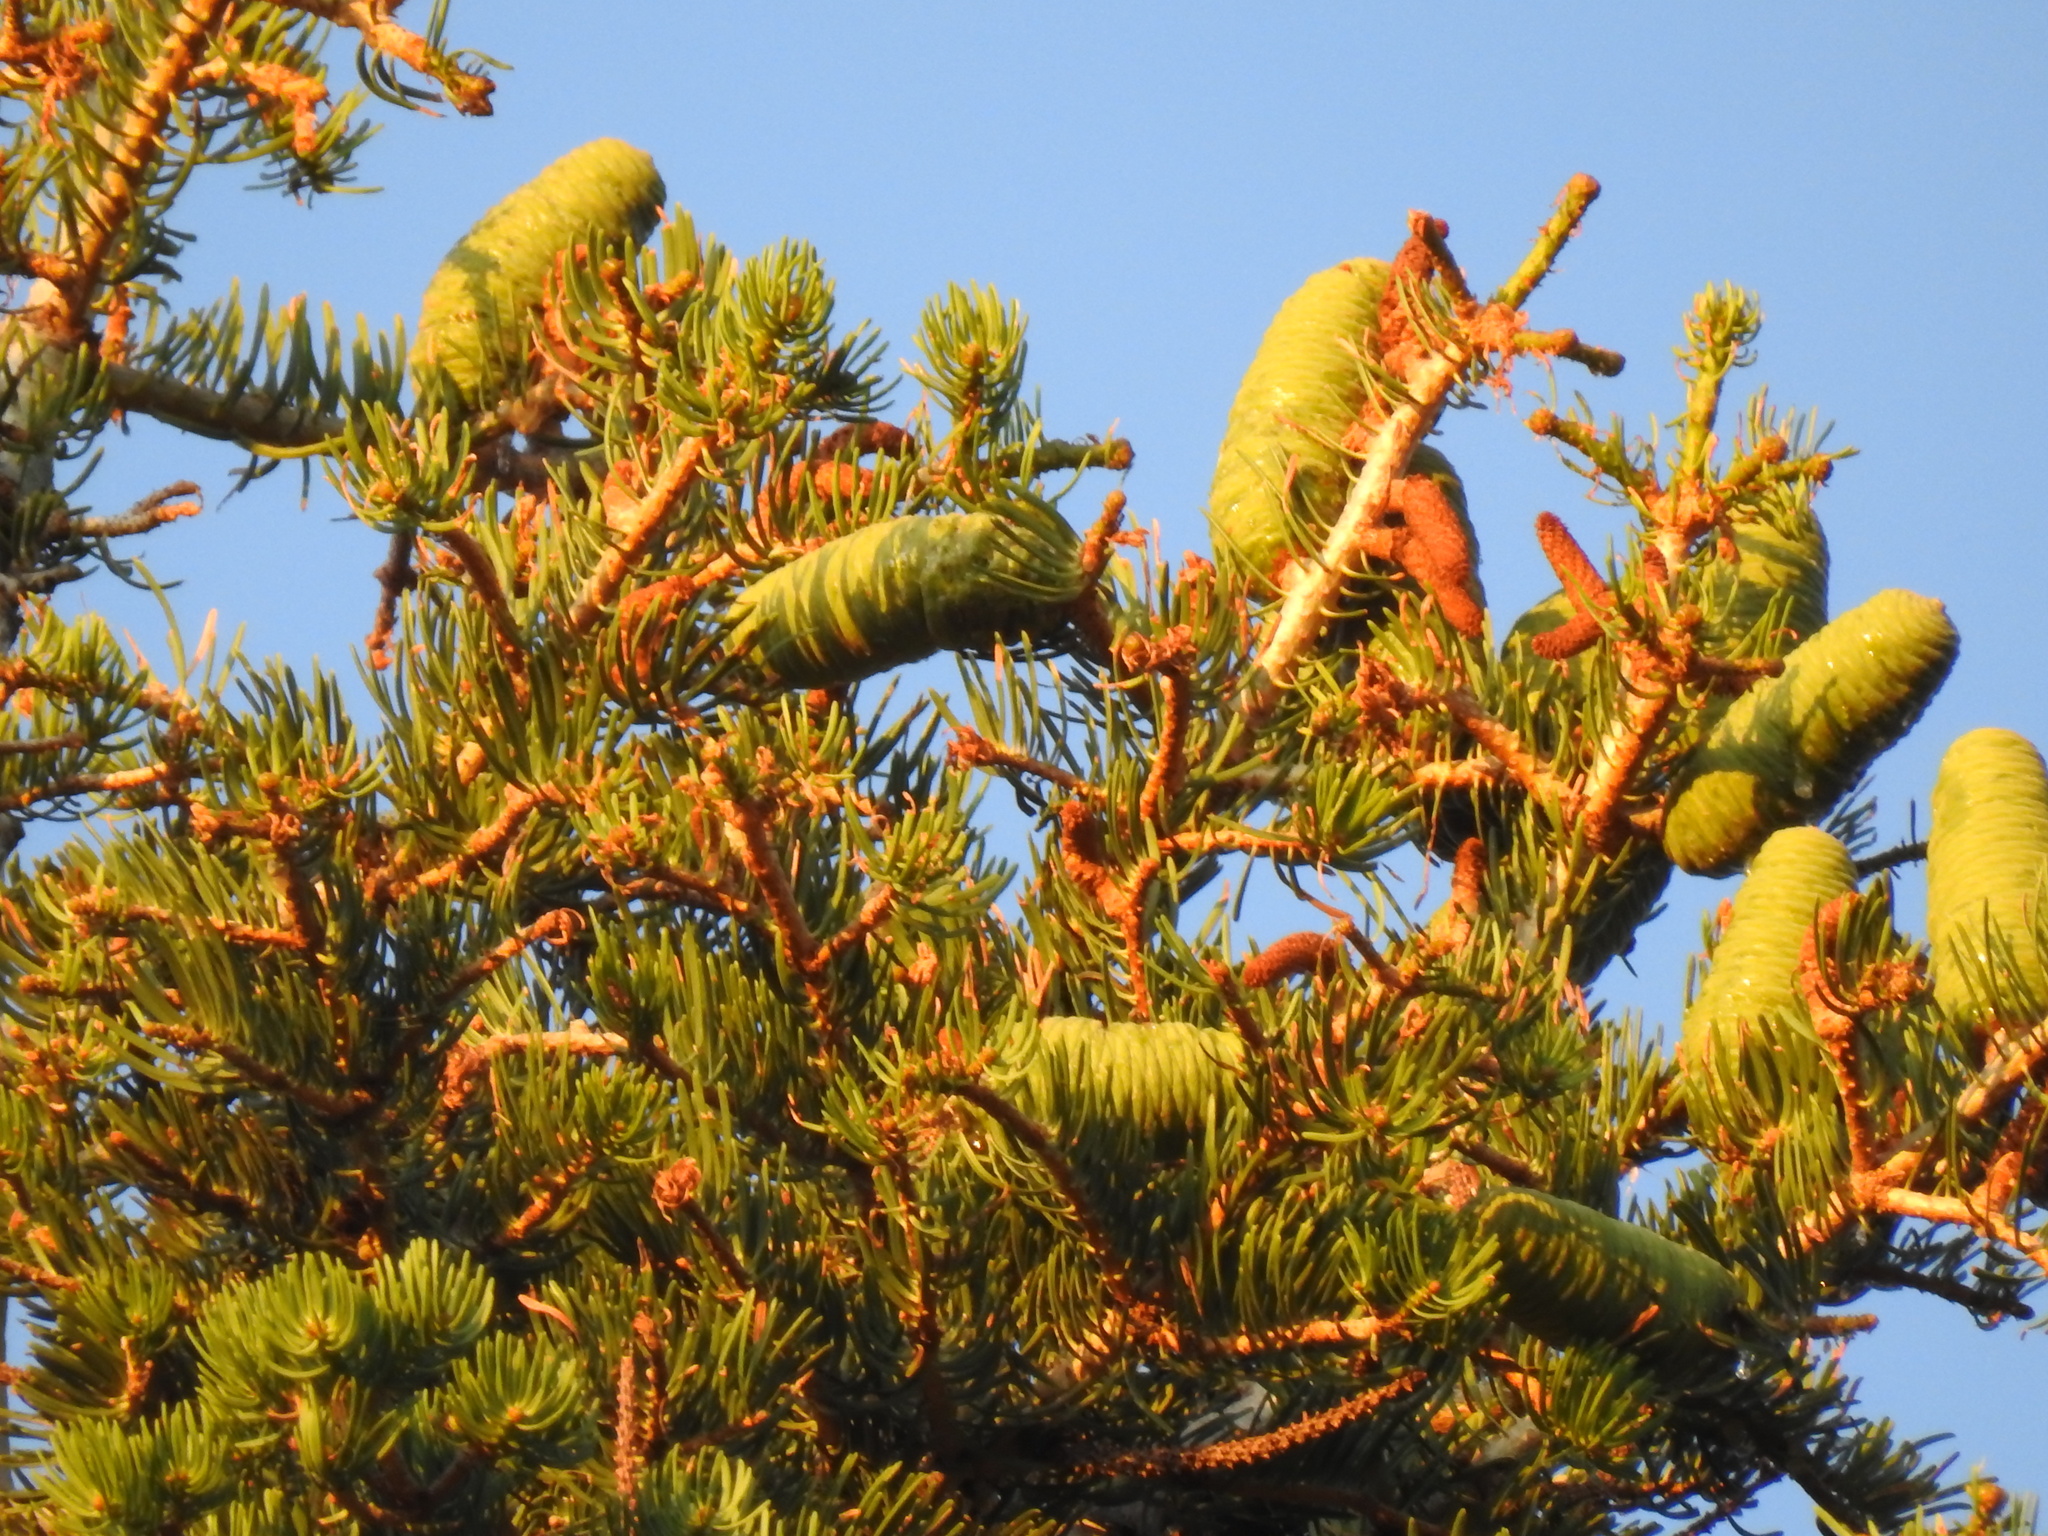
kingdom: Plantae
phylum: Tracheophyta
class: Pinopsida
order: Pinales
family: Pinaceae
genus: Abies
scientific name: Abies concolor
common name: Colorado fir
